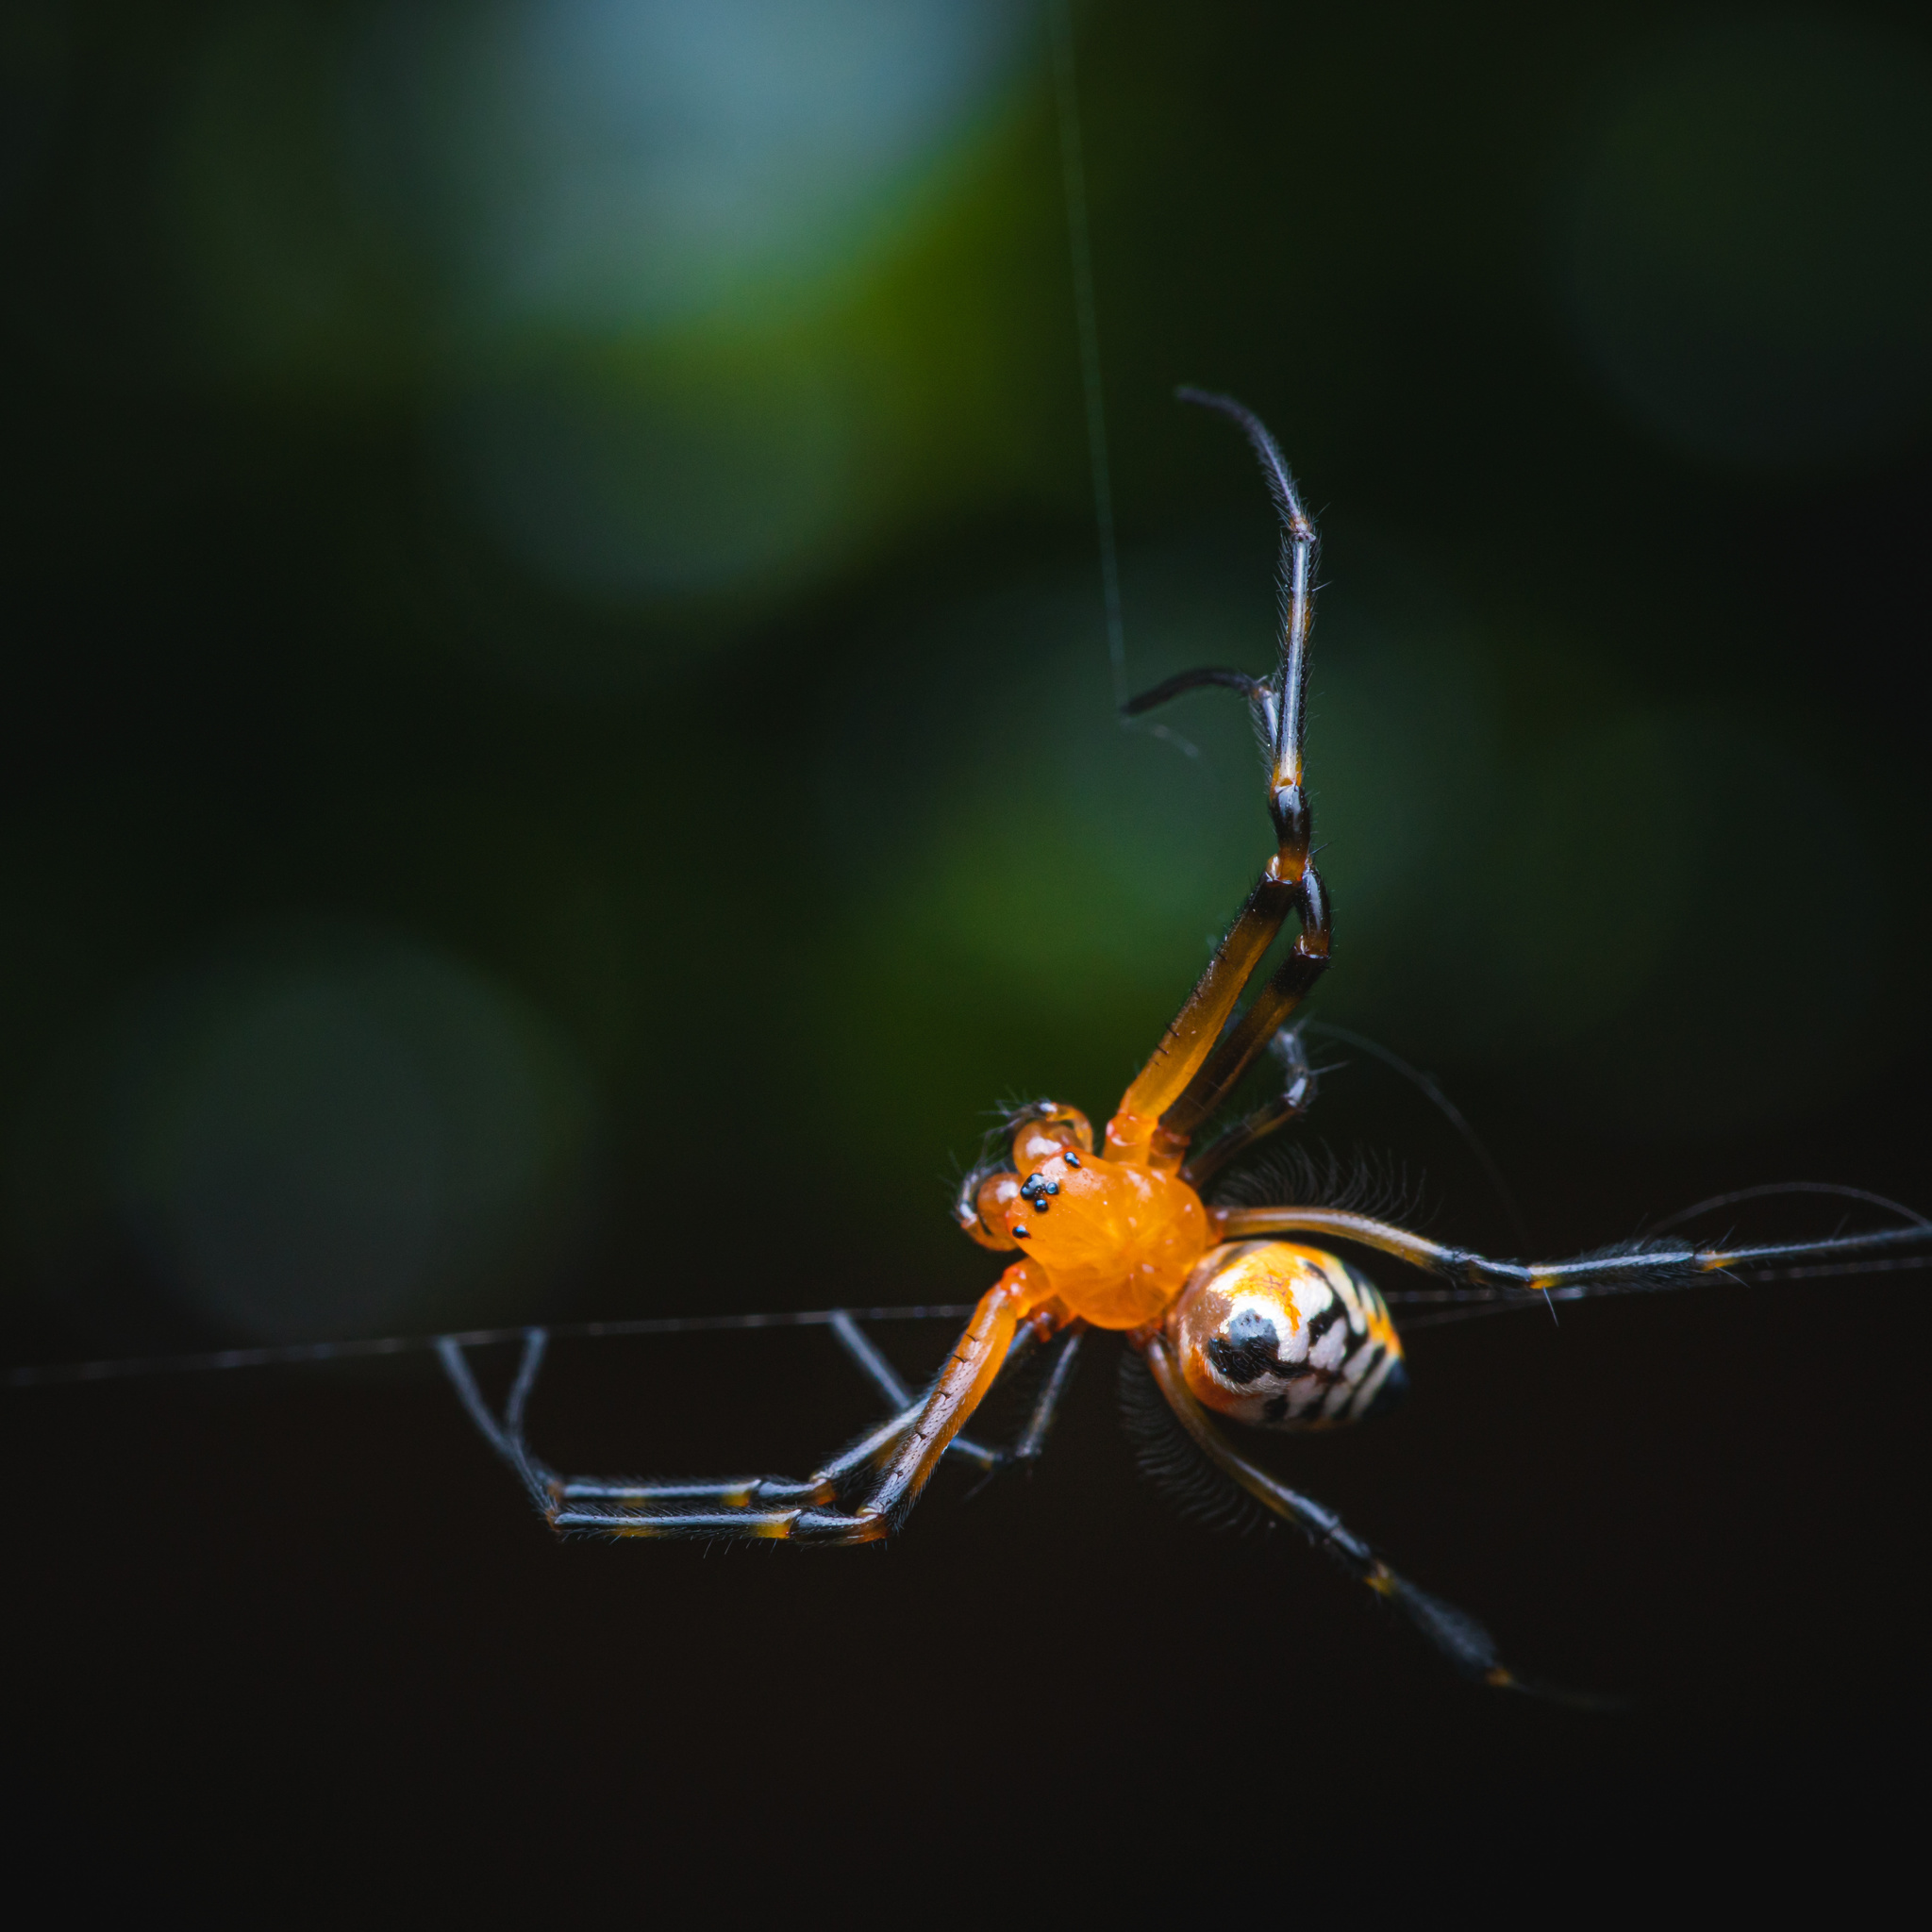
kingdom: Animalia
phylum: Arthropoda
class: Arachnida
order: Araneae
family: Tetragnathidae
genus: Leucauge
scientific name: Leucauge fastigata
